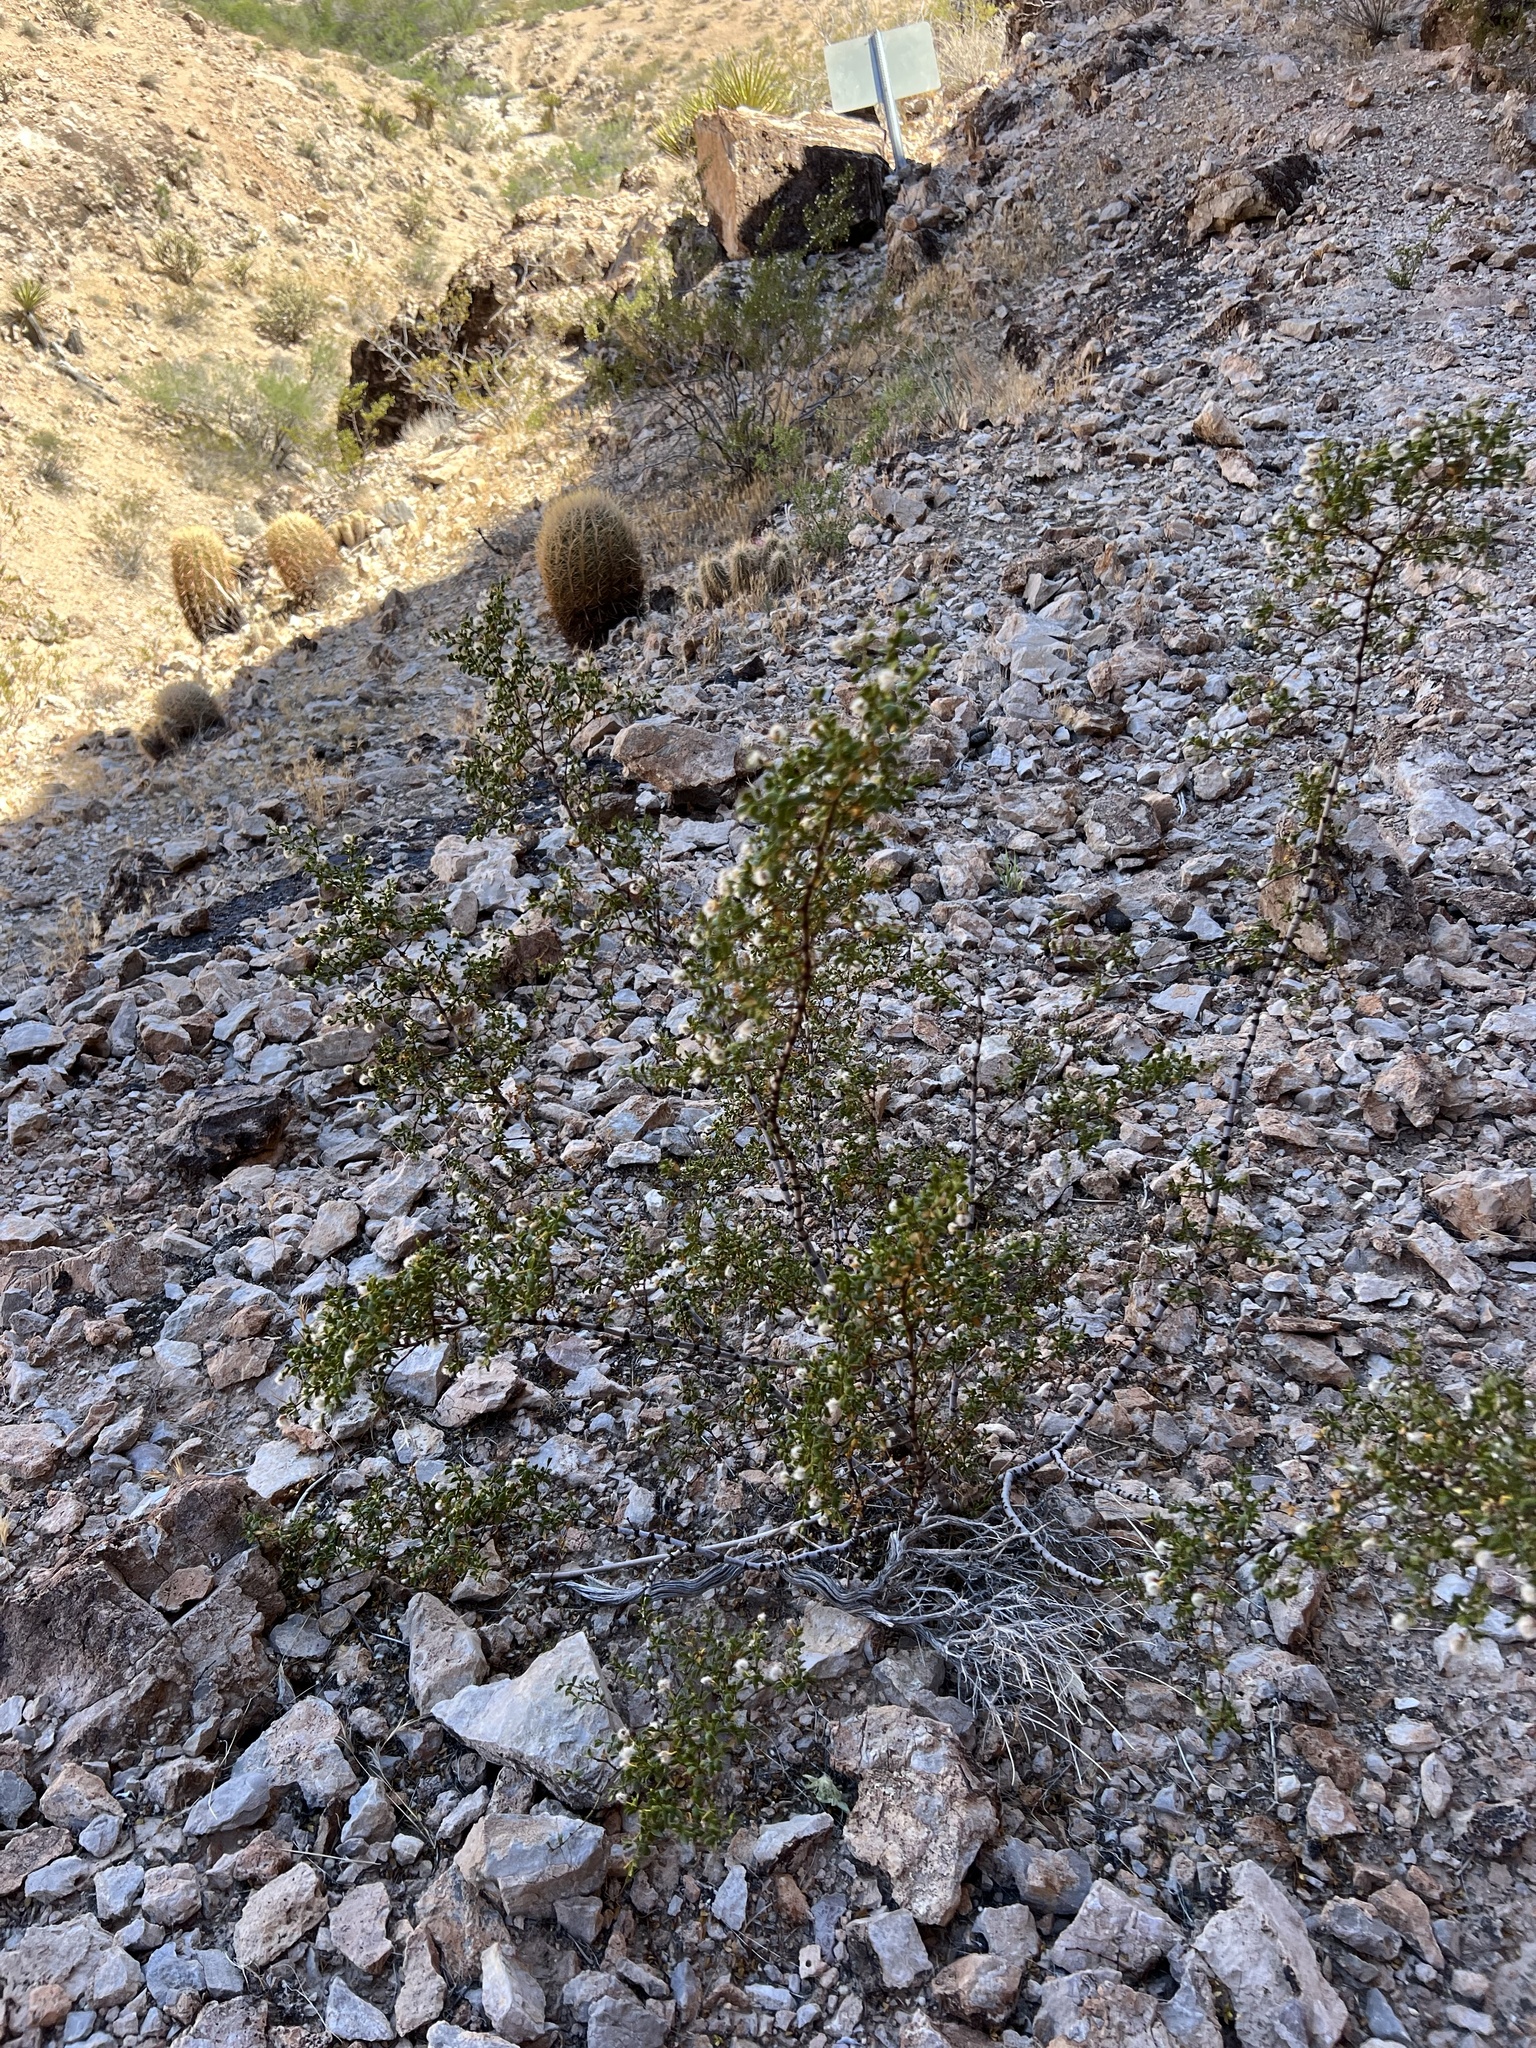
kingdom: Plantae
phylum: Tracheophyta
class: Magnoliopsida
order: Zygophyllales
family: Zygophyllaceae
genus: Larrea
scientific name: Larrea tridentata
